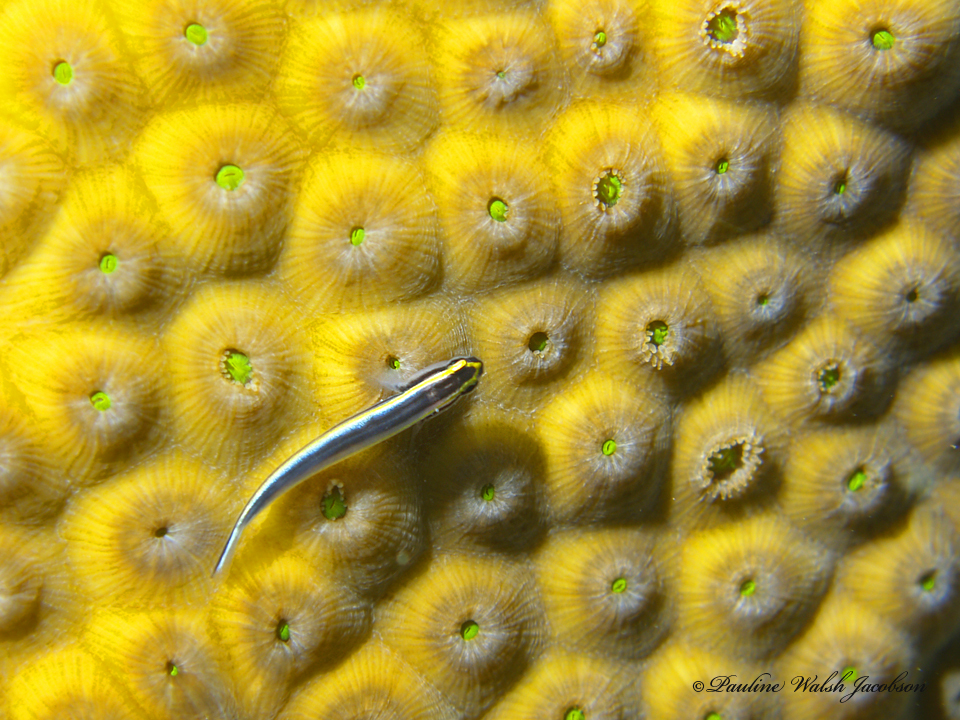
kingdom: Animalia
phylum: Chordata
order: Perciformes
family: Gobiidae
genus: Elacatinus
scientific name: Elacatinus evelynae
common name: Sharknose goby
